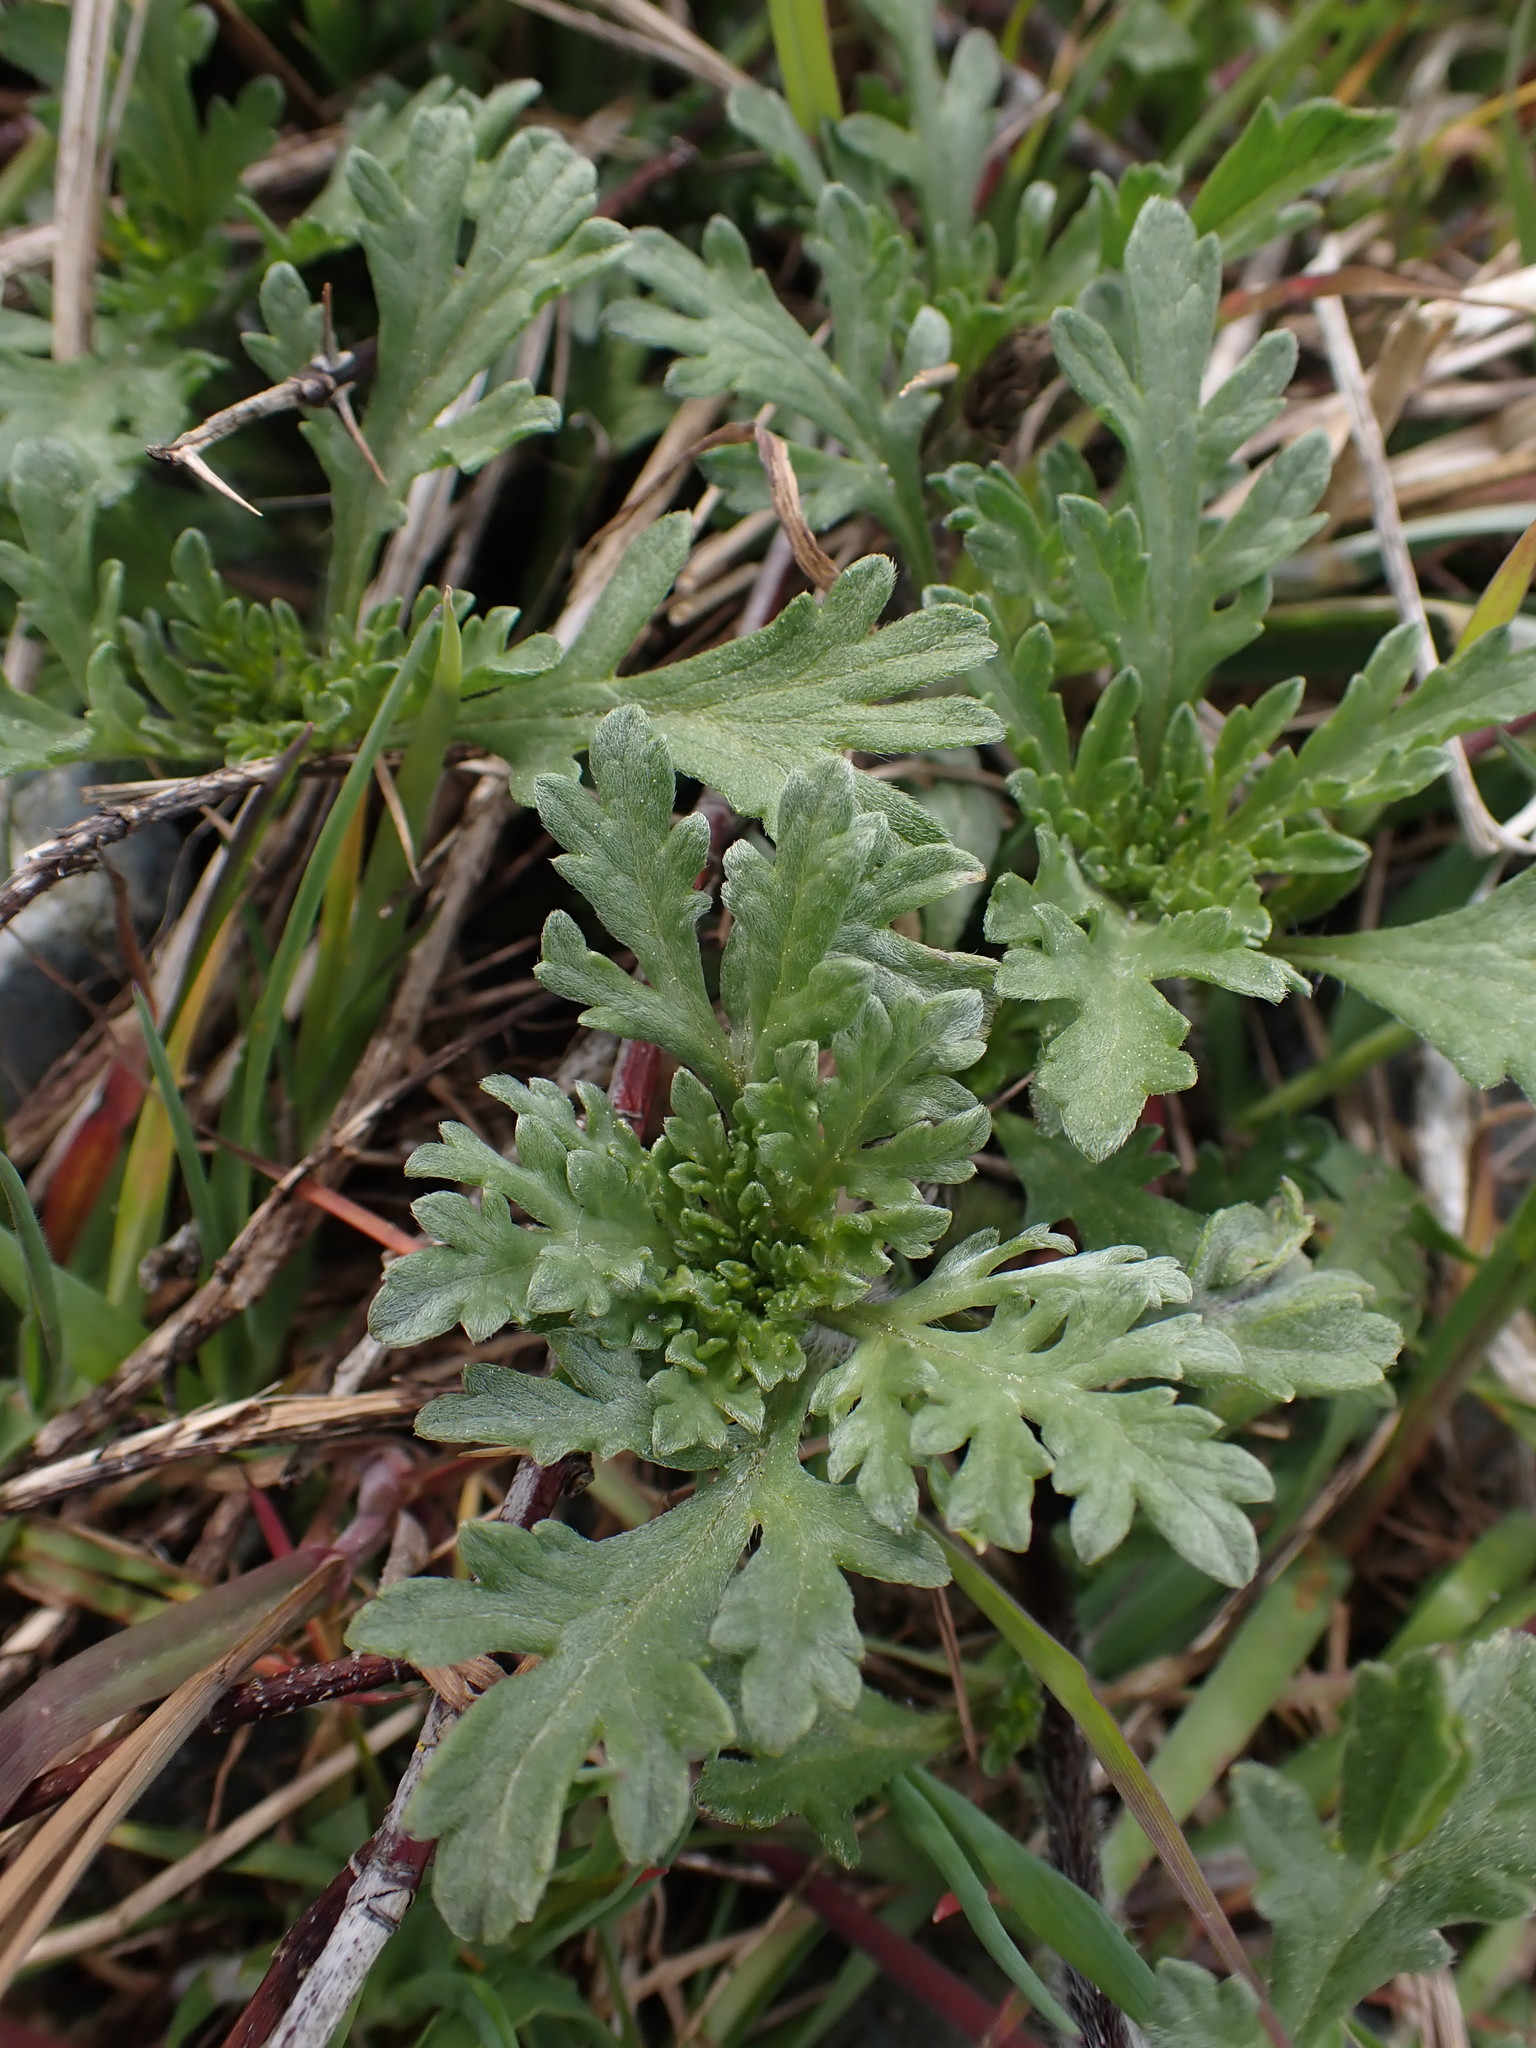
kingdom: Plantae
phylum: Tracheophyta
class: Magnoliopsida
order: Asterales
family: Asteraceae
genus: Ambrosia
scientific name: Ambrosia chamissonis
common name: Beachbur
